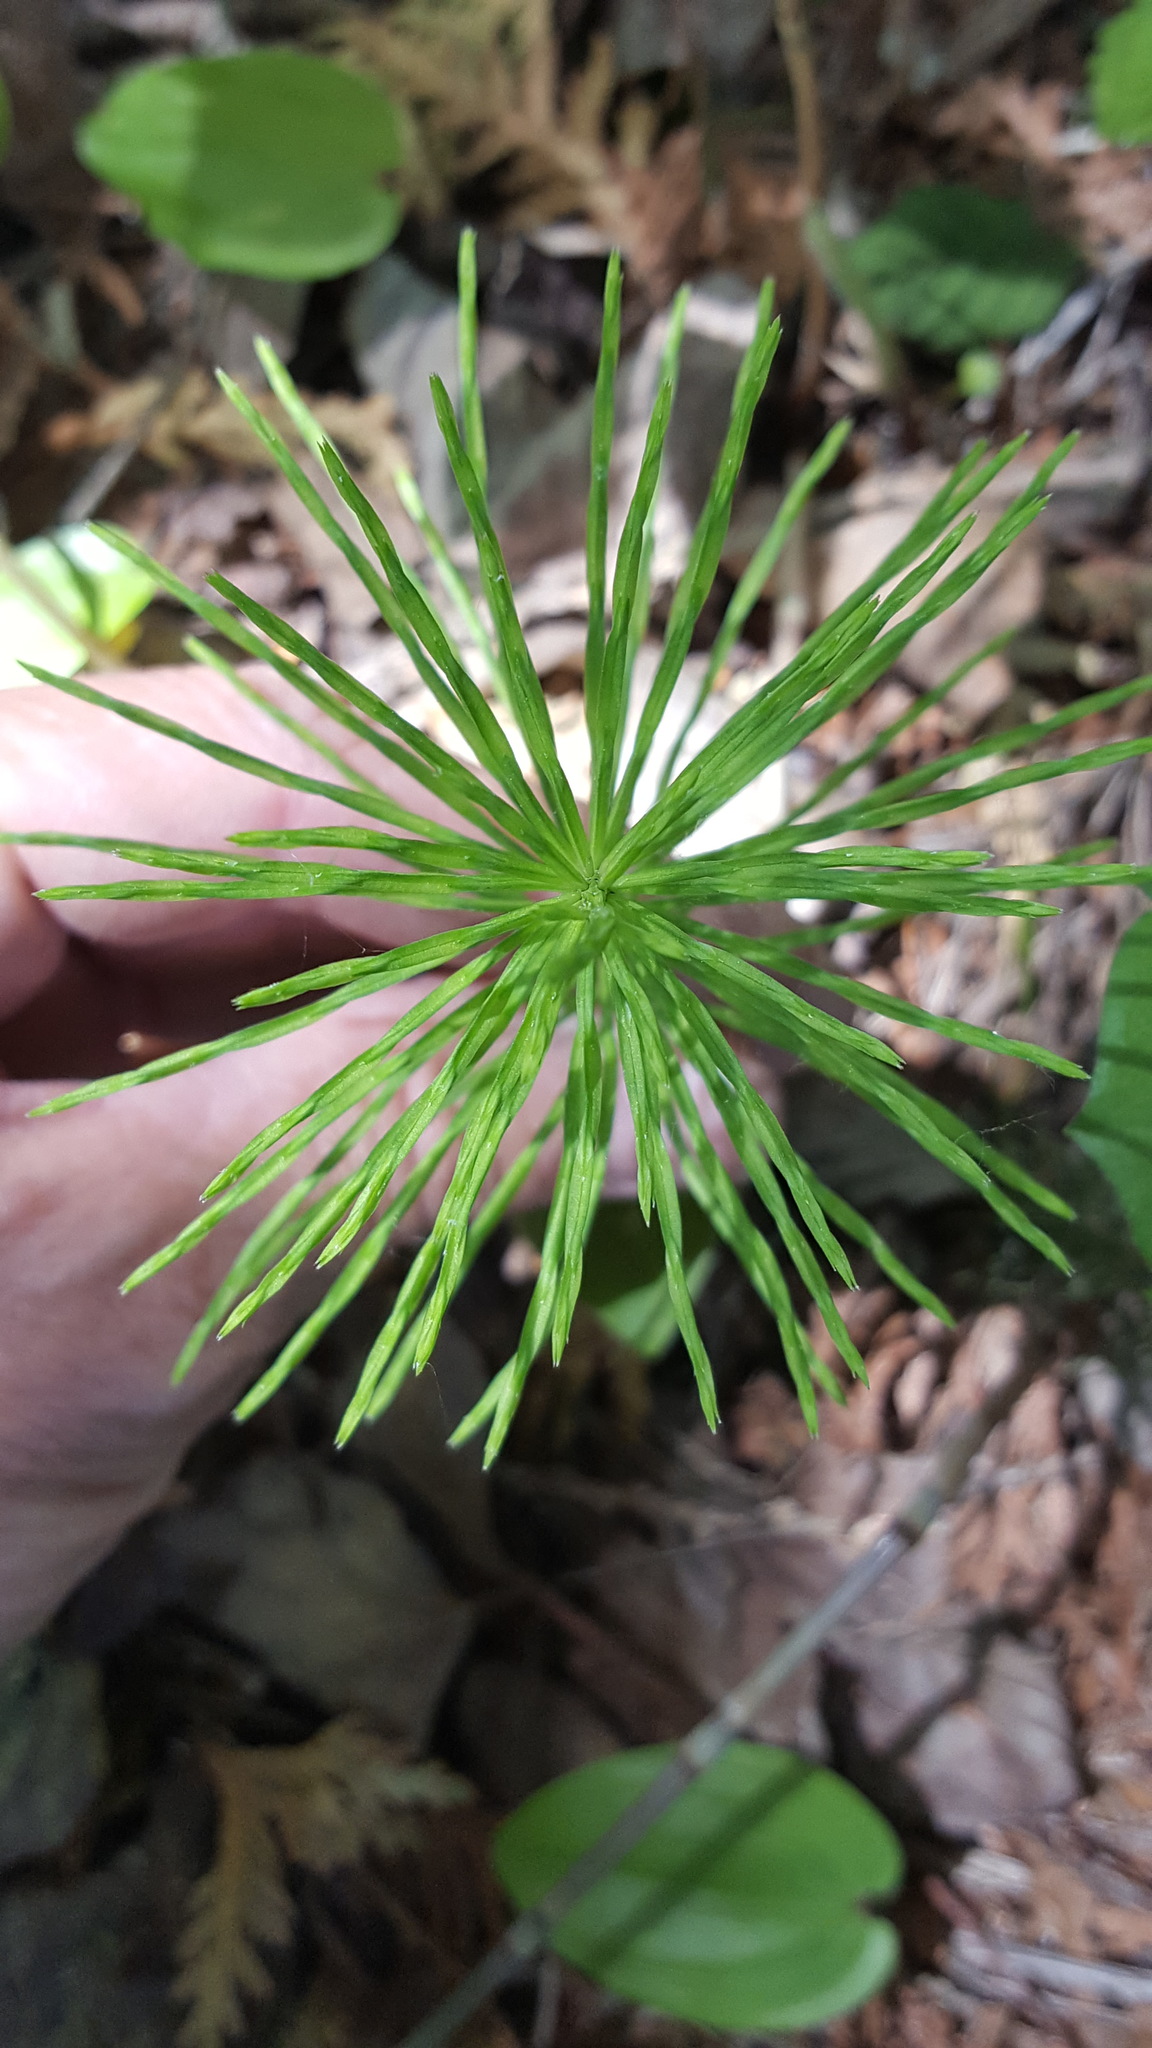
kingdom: Plantae
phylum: Tracheophyta
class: Polypodiopsida
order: Equisetales
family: Equisetaceae
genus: Equisetum
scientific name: Equisetum arvense
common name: Field horsetail
